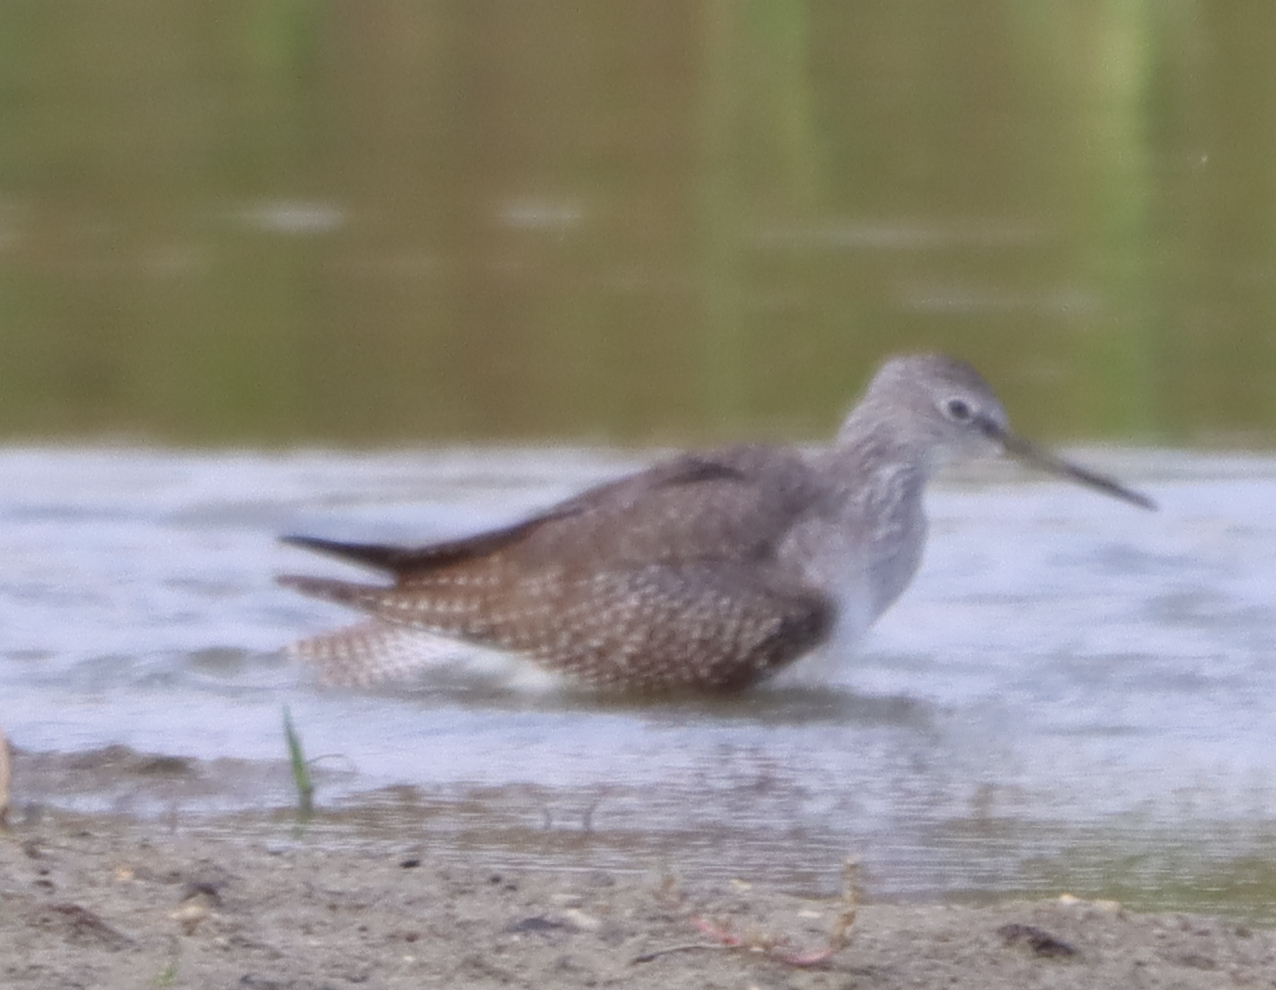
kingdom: Animalia
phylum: Chordata
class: Aves
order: Charadriiformes
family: Scolopacidae
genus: Tringa
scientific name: Tringa melanoleuca
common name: Greater yellowlegs
